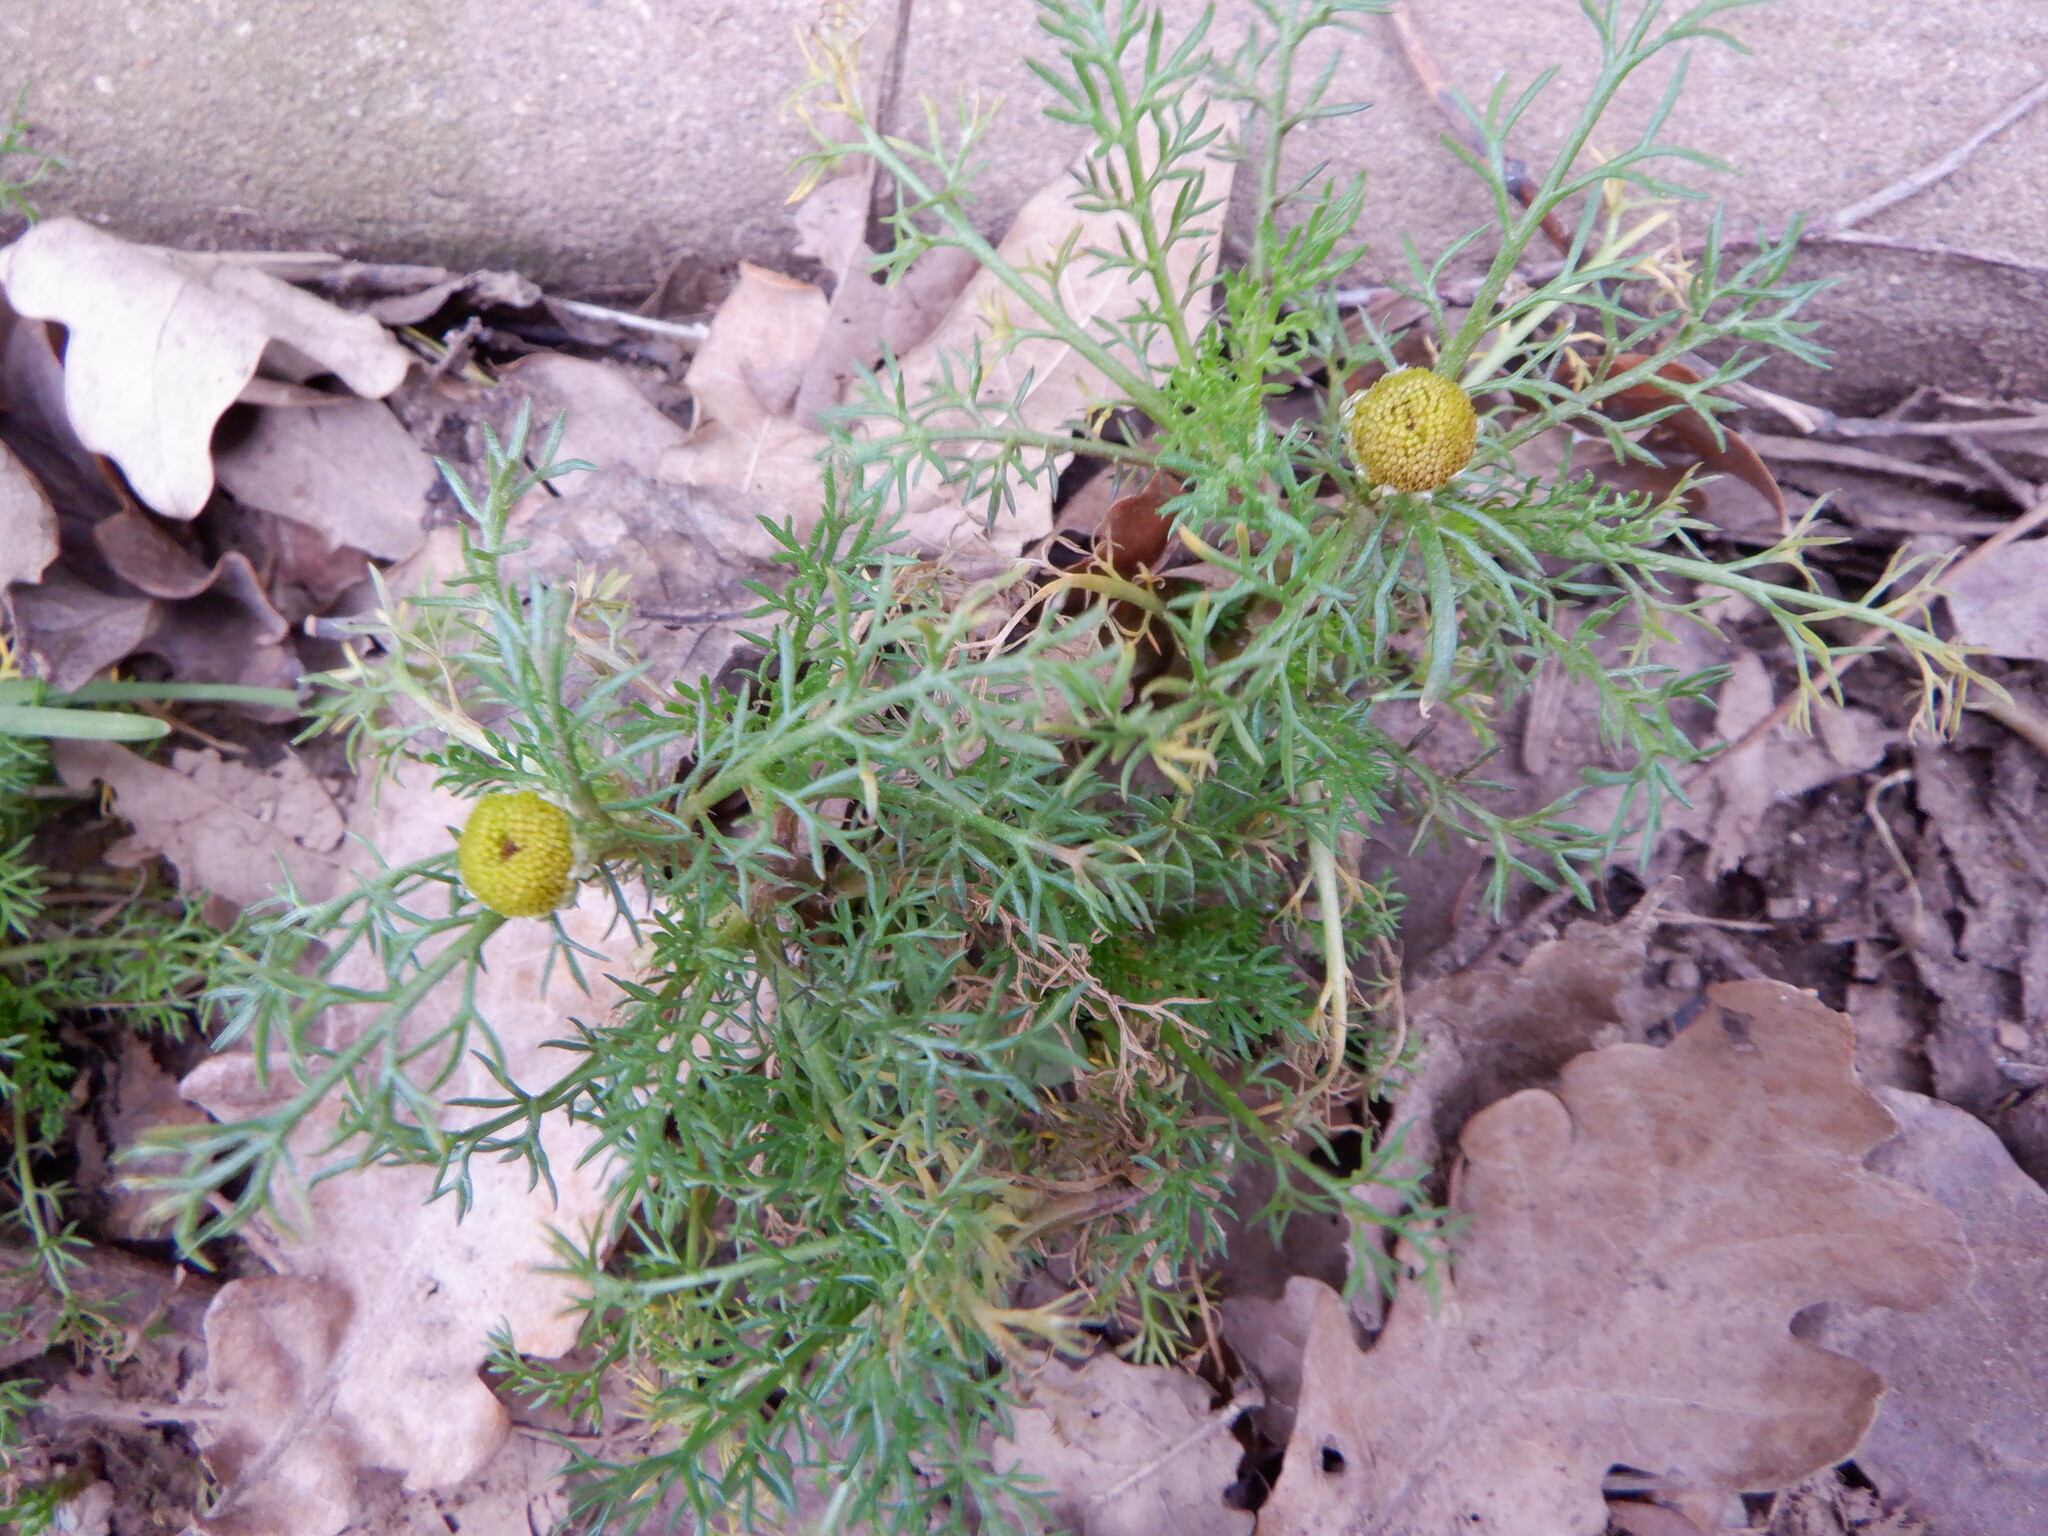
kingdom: Plantae
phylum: Tracheophyta
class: Magnoliopsida
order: Asterales
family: Asteraceae
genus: Matricaria
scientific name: Matricaria discoidea
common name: Disc mayweed
